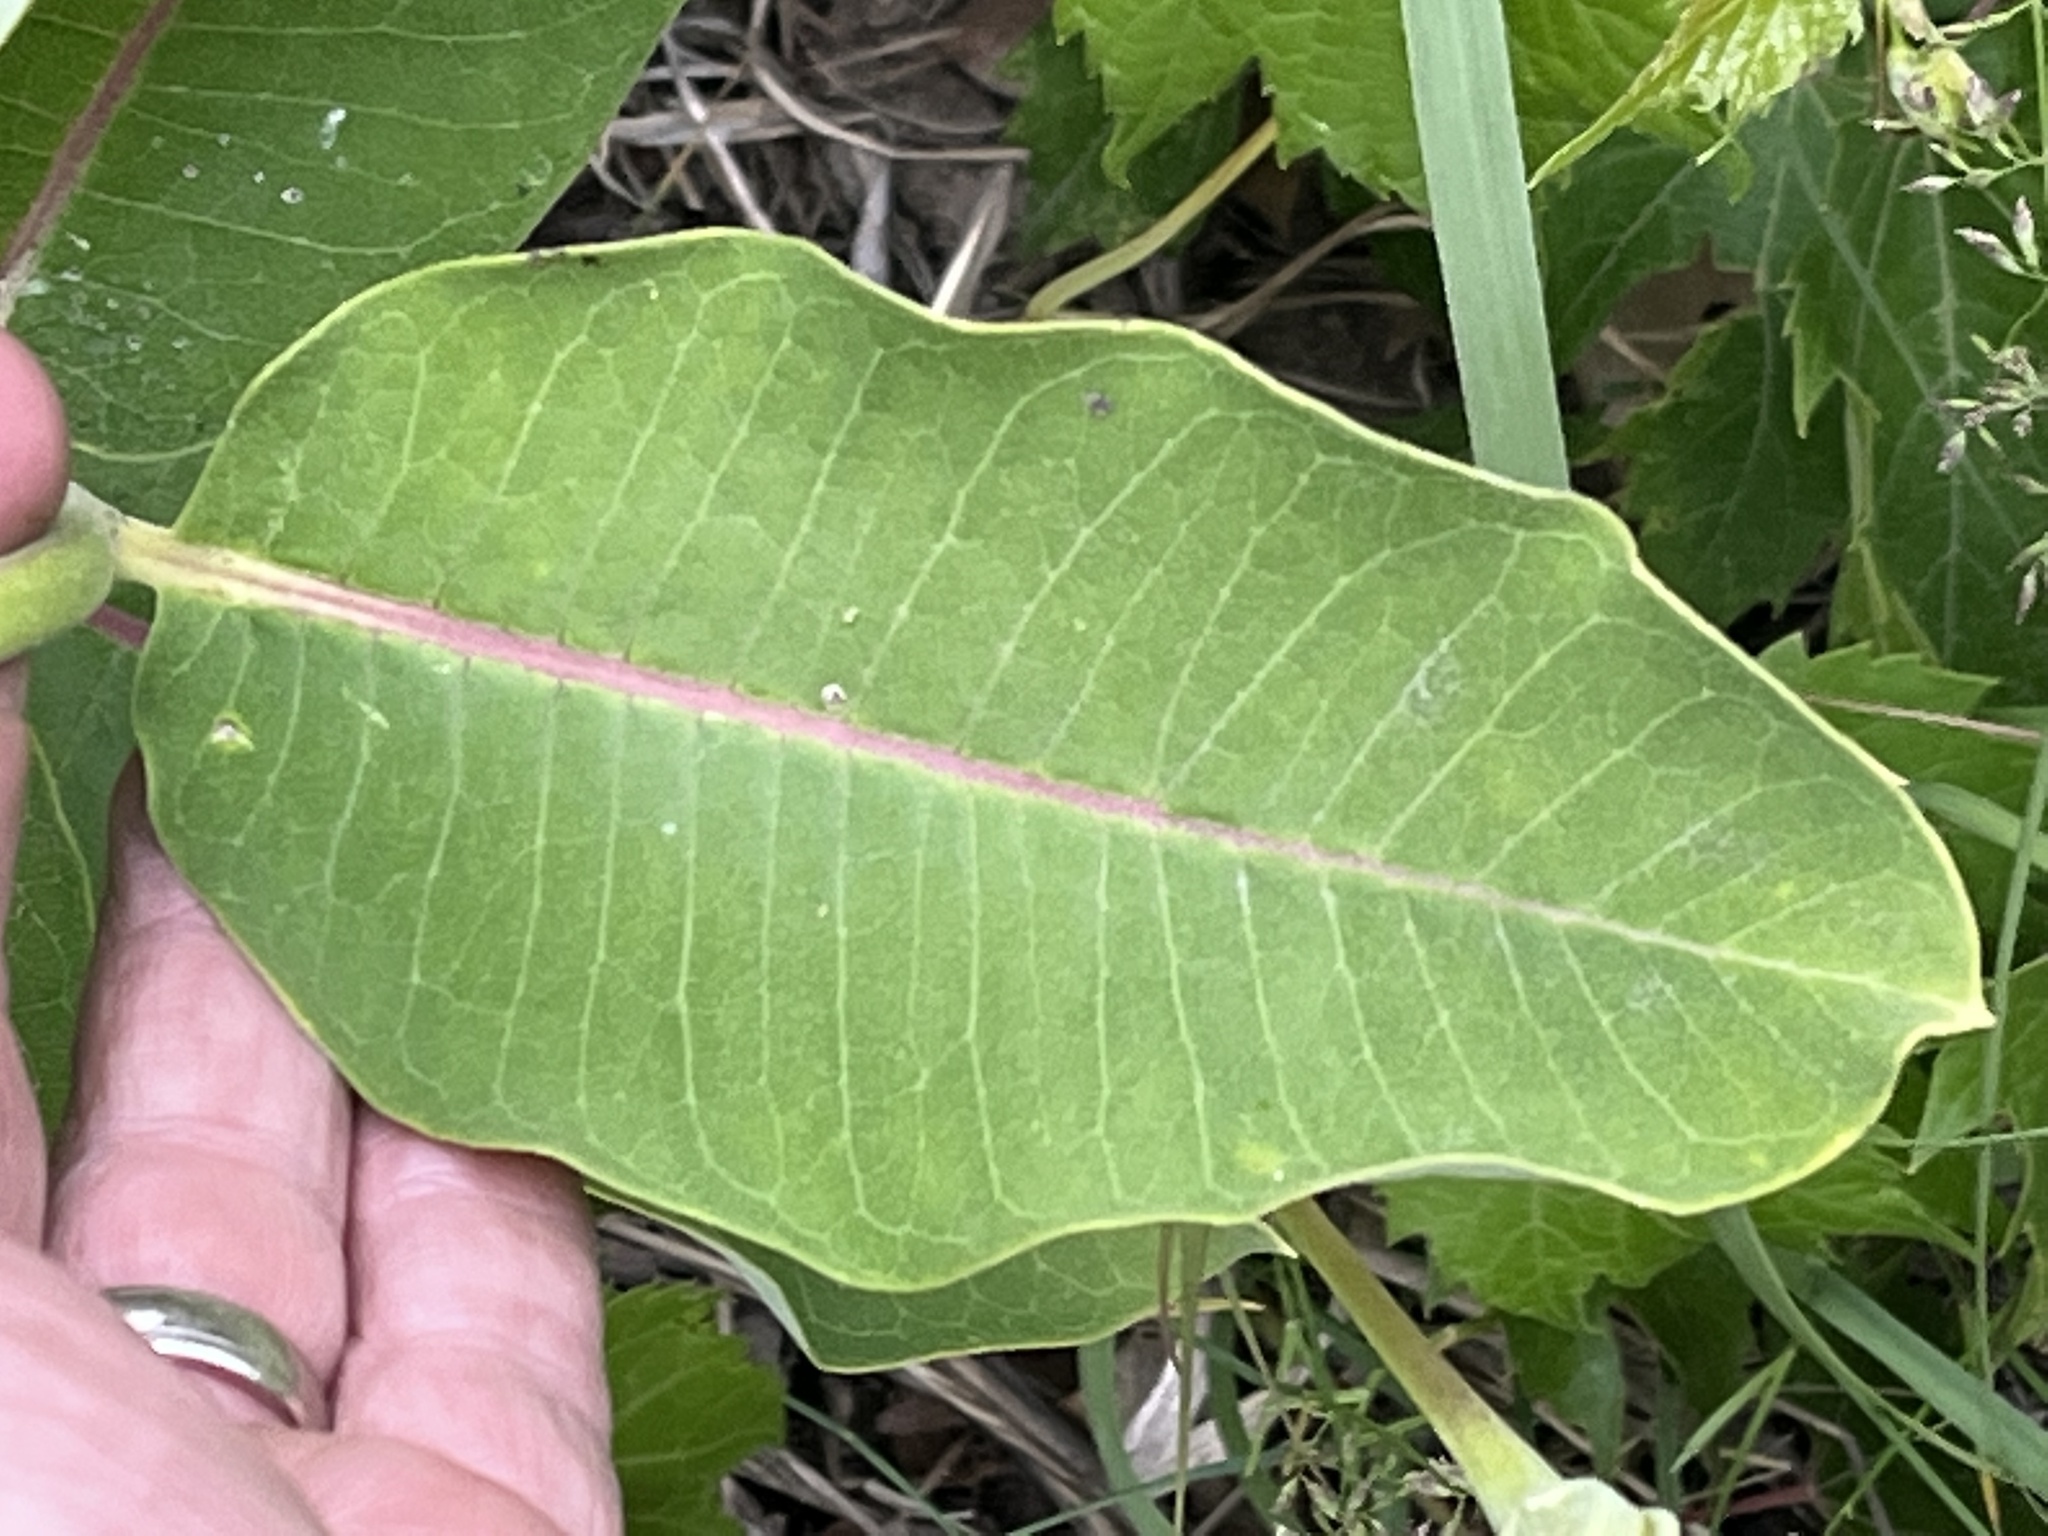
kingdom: Plantae
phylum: Tracheophyta
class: Magnoliopsida
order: Gentianales
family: Apocynaceae
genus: Asclepias
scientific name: Asclepias syriaca
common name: Common milkweed
